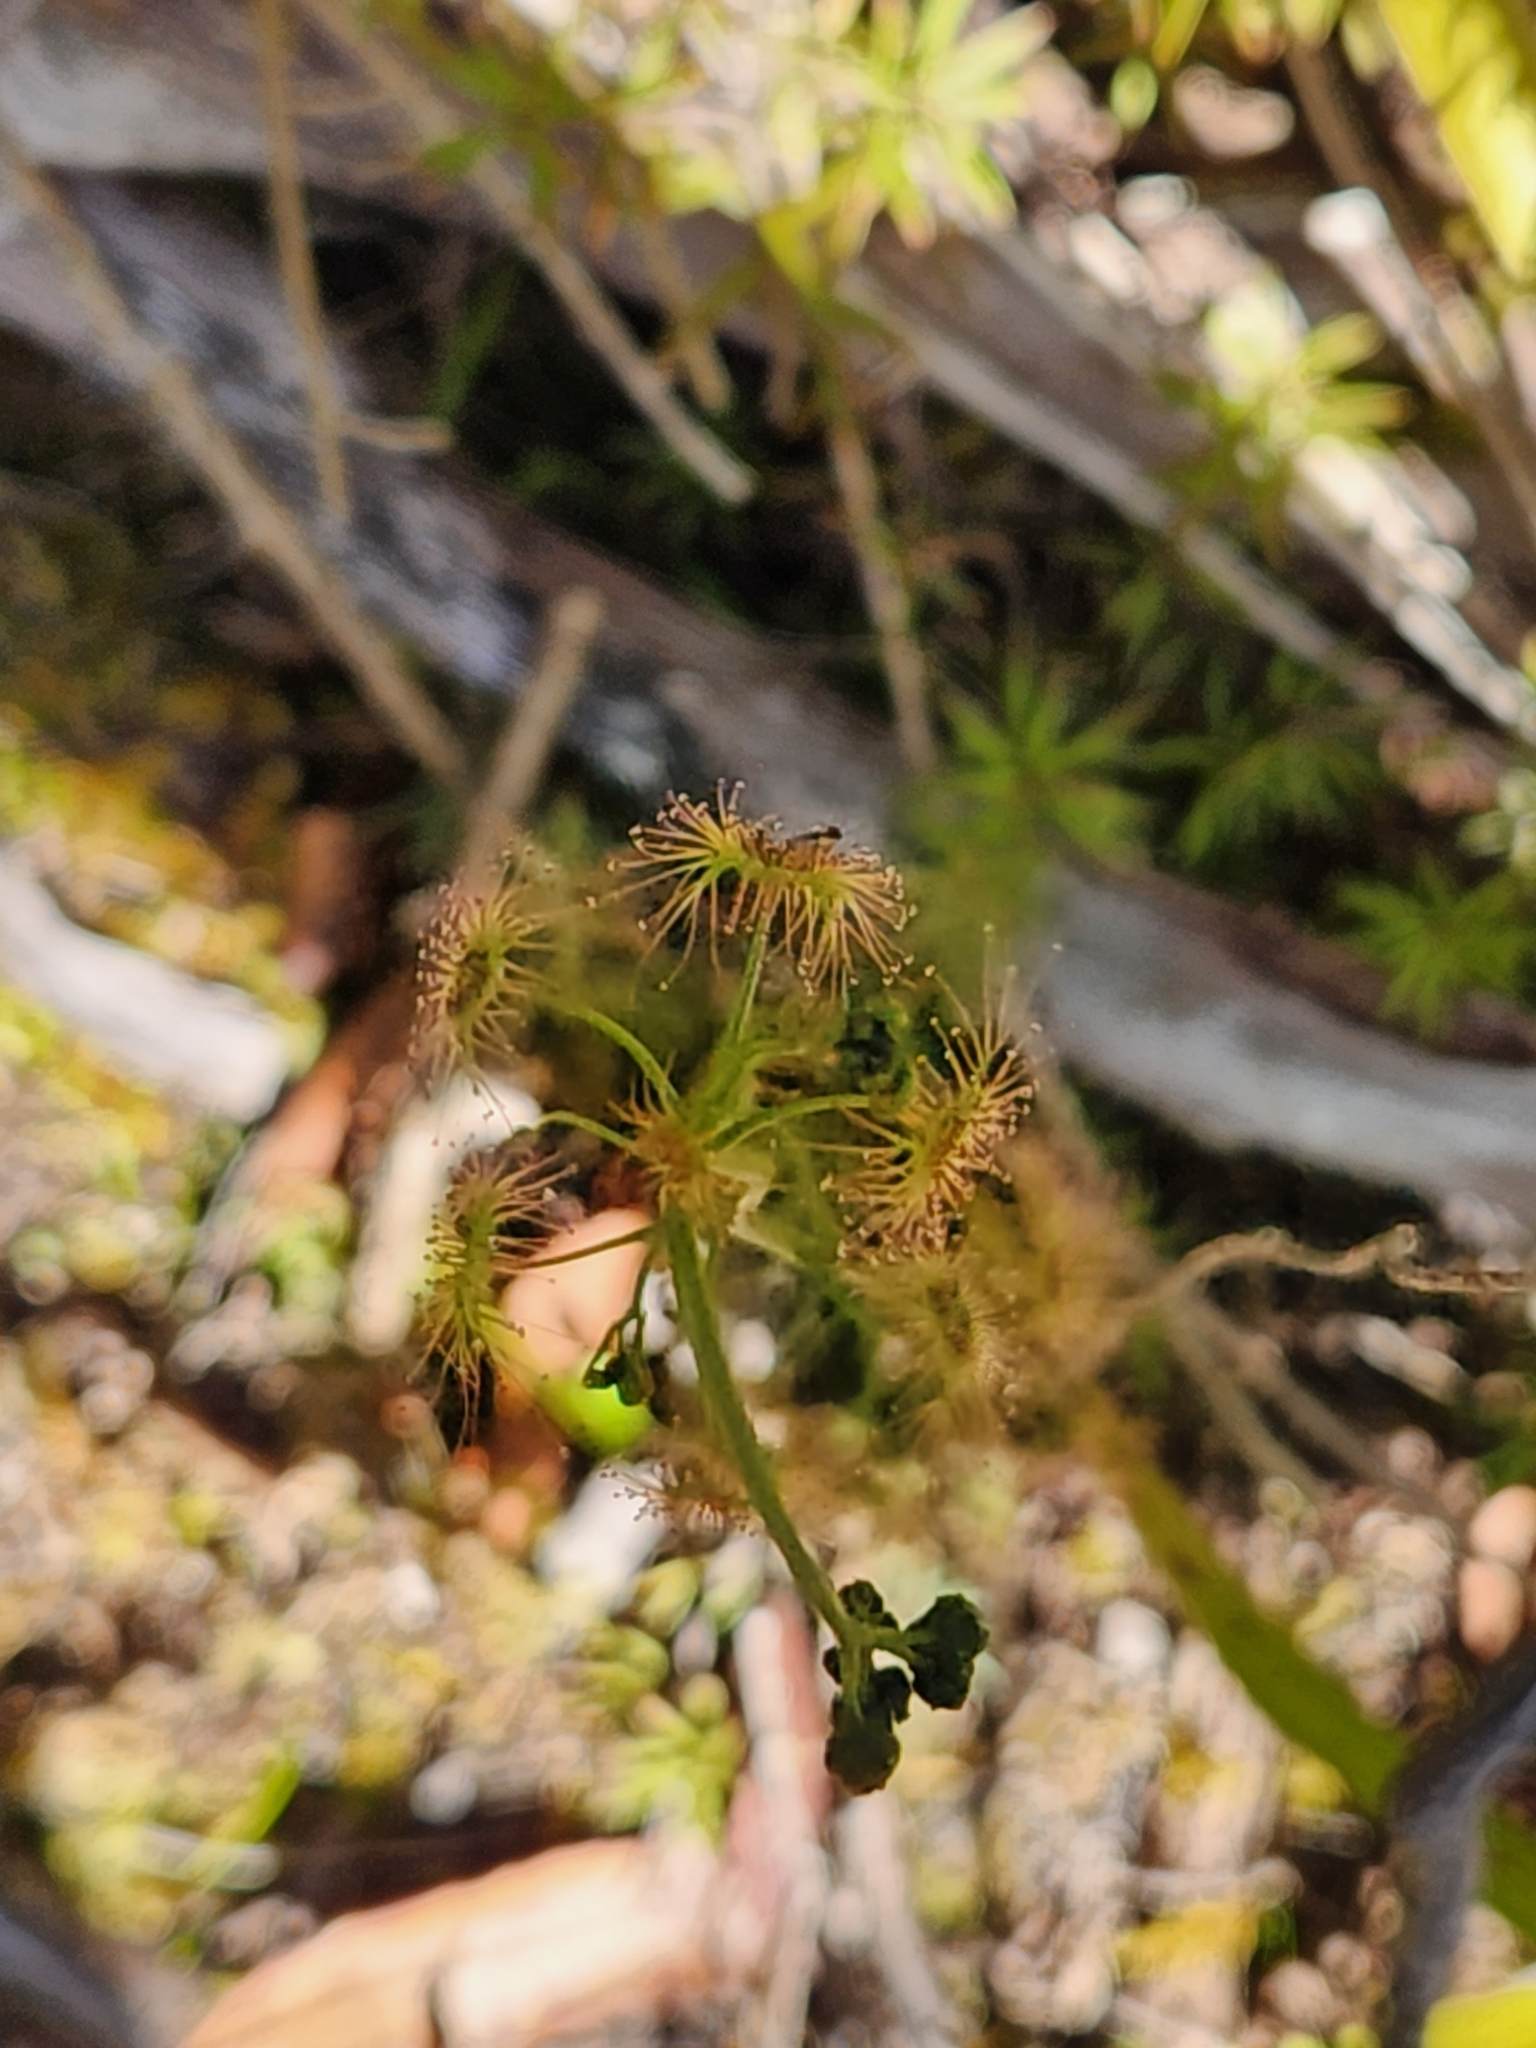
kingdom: Plantae
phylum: Tracheophyta
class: Magnoliopsida
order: Caryophyllales
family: Droseraceae
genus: Drosera
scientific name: Drosera peltata
